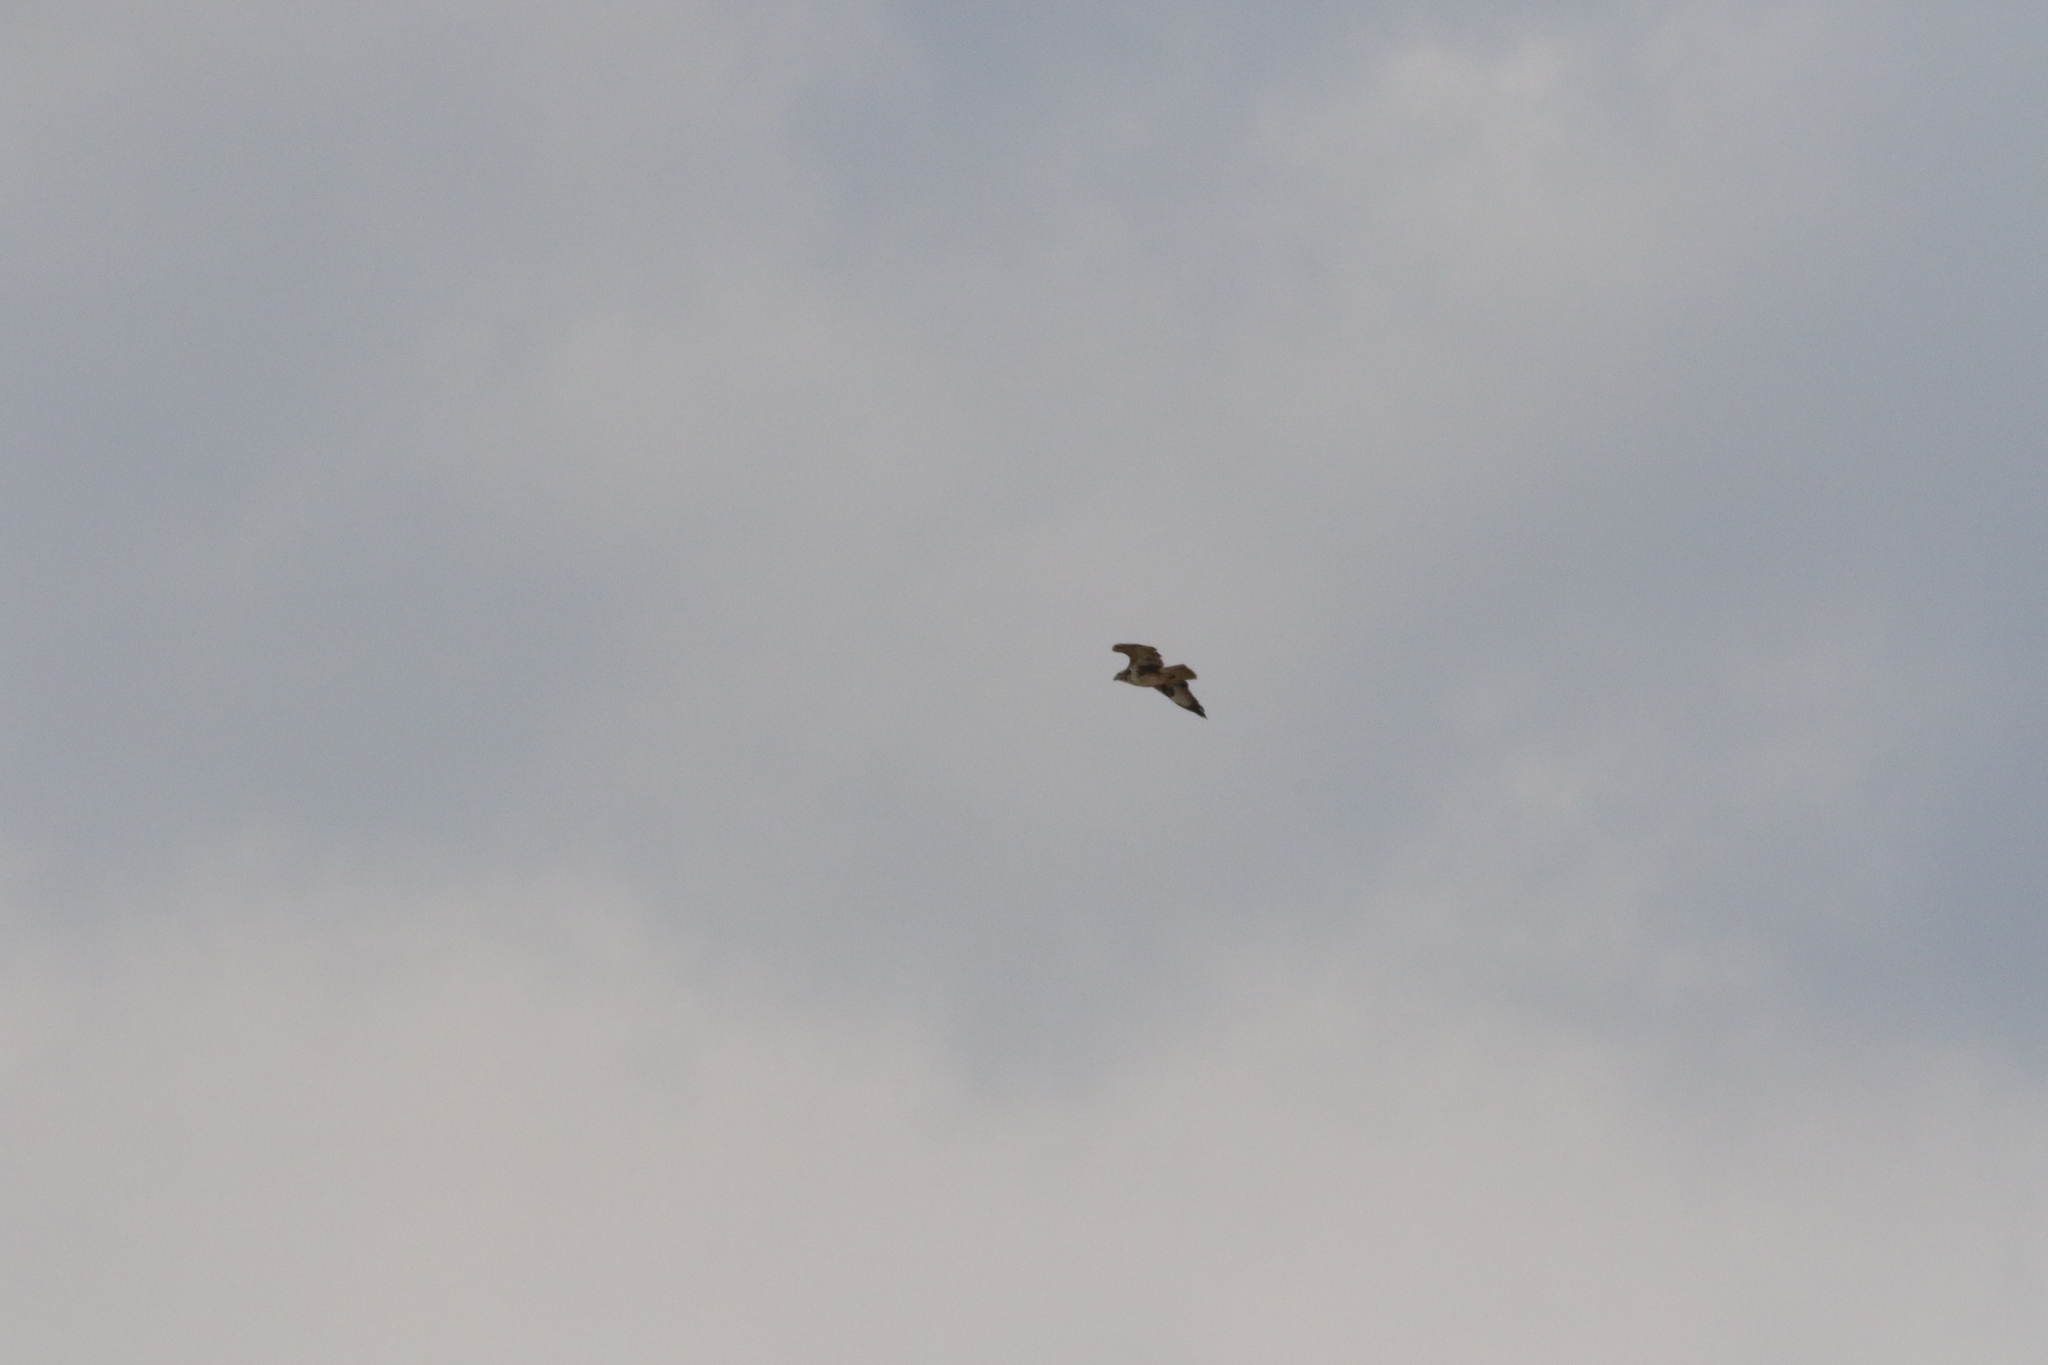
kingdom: Animalia
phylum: Chordata
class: Aves
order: Accipitriformes
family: Accipitridae
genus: Buteo
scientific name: Buteo buteo
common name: Common buzzard
